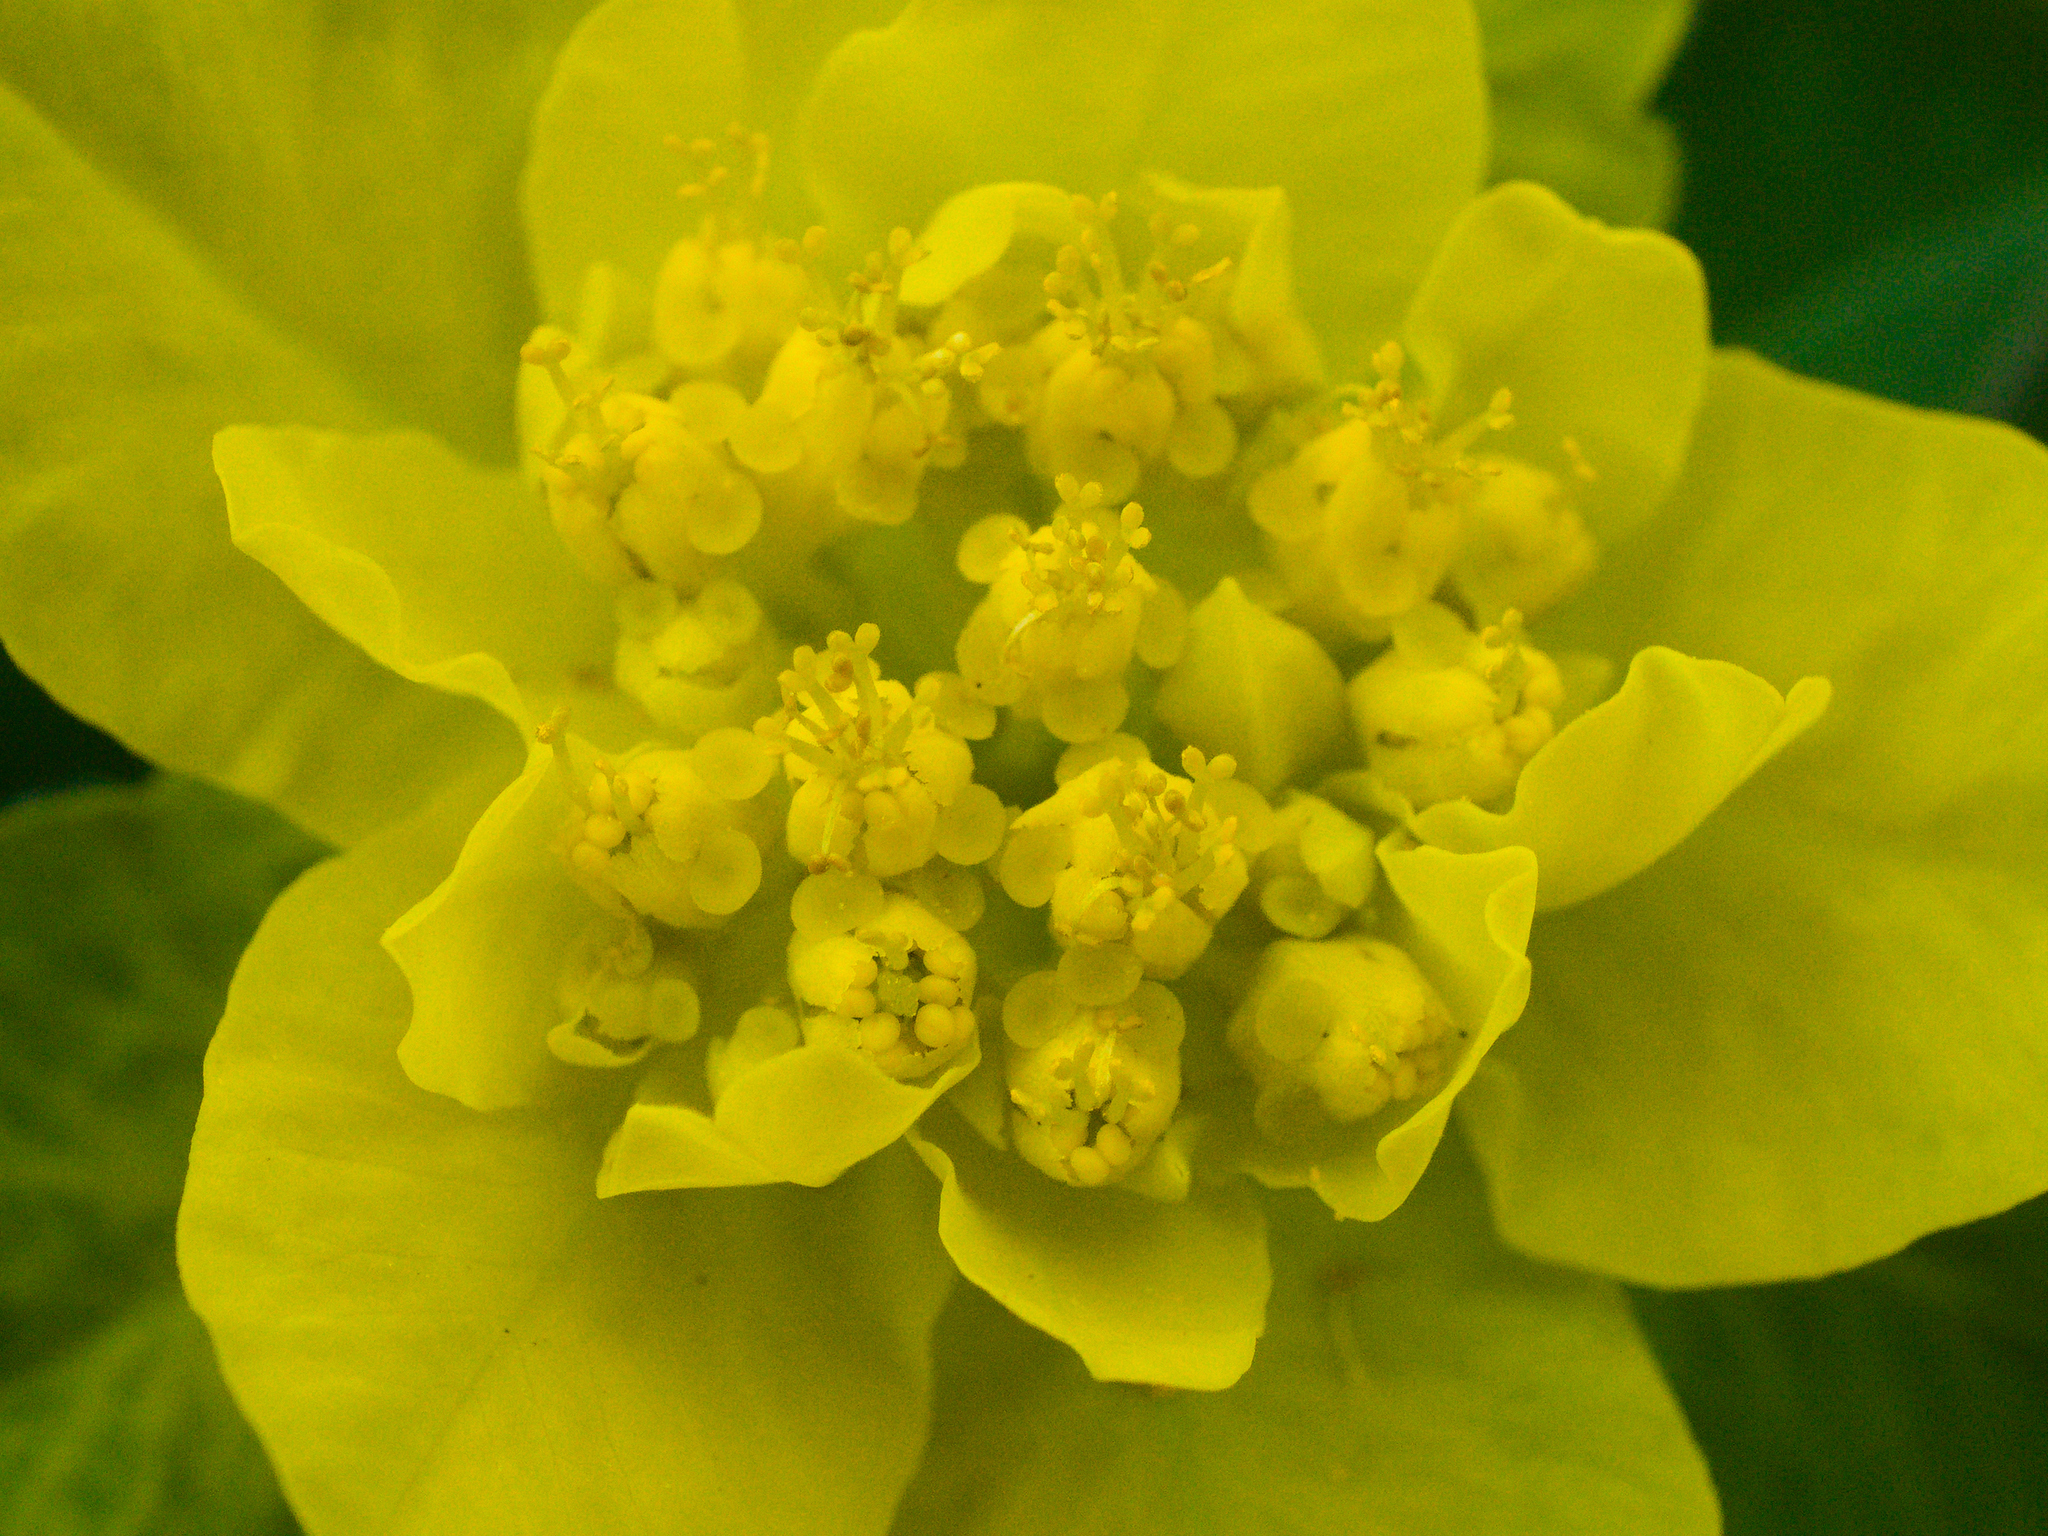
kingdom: Plantae
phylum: Tracheophyta
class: Magnoliopsida
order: Malpighiales
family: Euphorbiaceae
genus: Euphorbia
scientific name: Euphorbia epithymoides
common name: Cushion spurge
